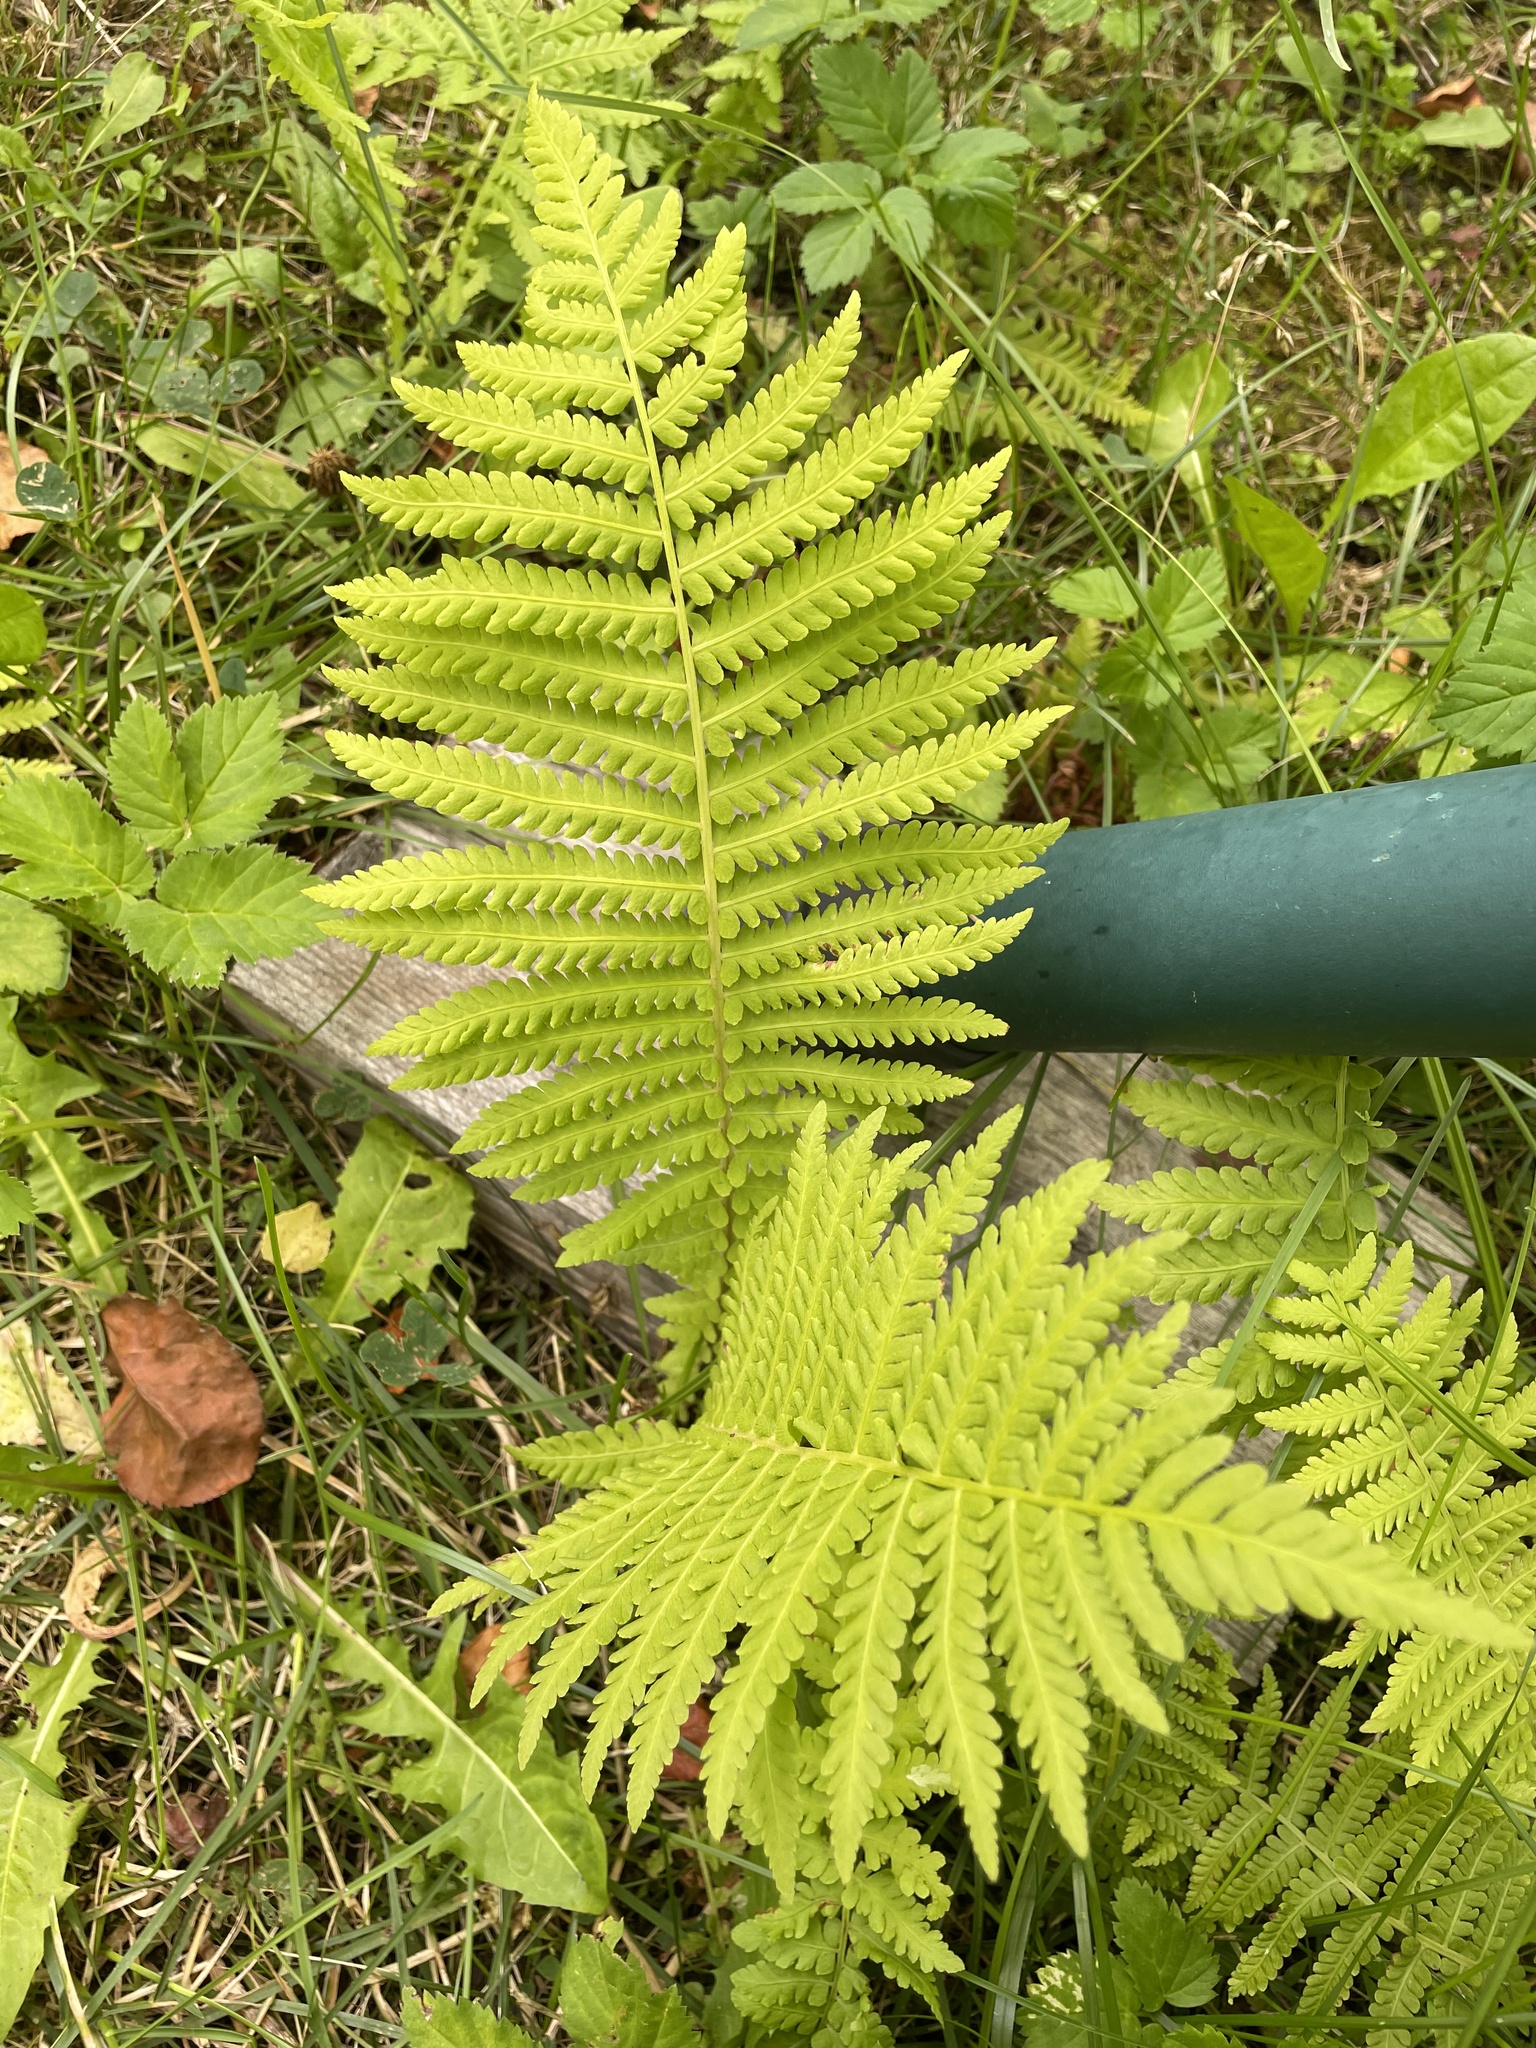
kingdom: Plantae
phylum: Tracheophyta
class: Polypodiopsida
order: Polypodiales
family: Onocleaceae
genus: Matteuccia
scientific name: Matteuccia struthiopteris
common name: Ostrich fern
